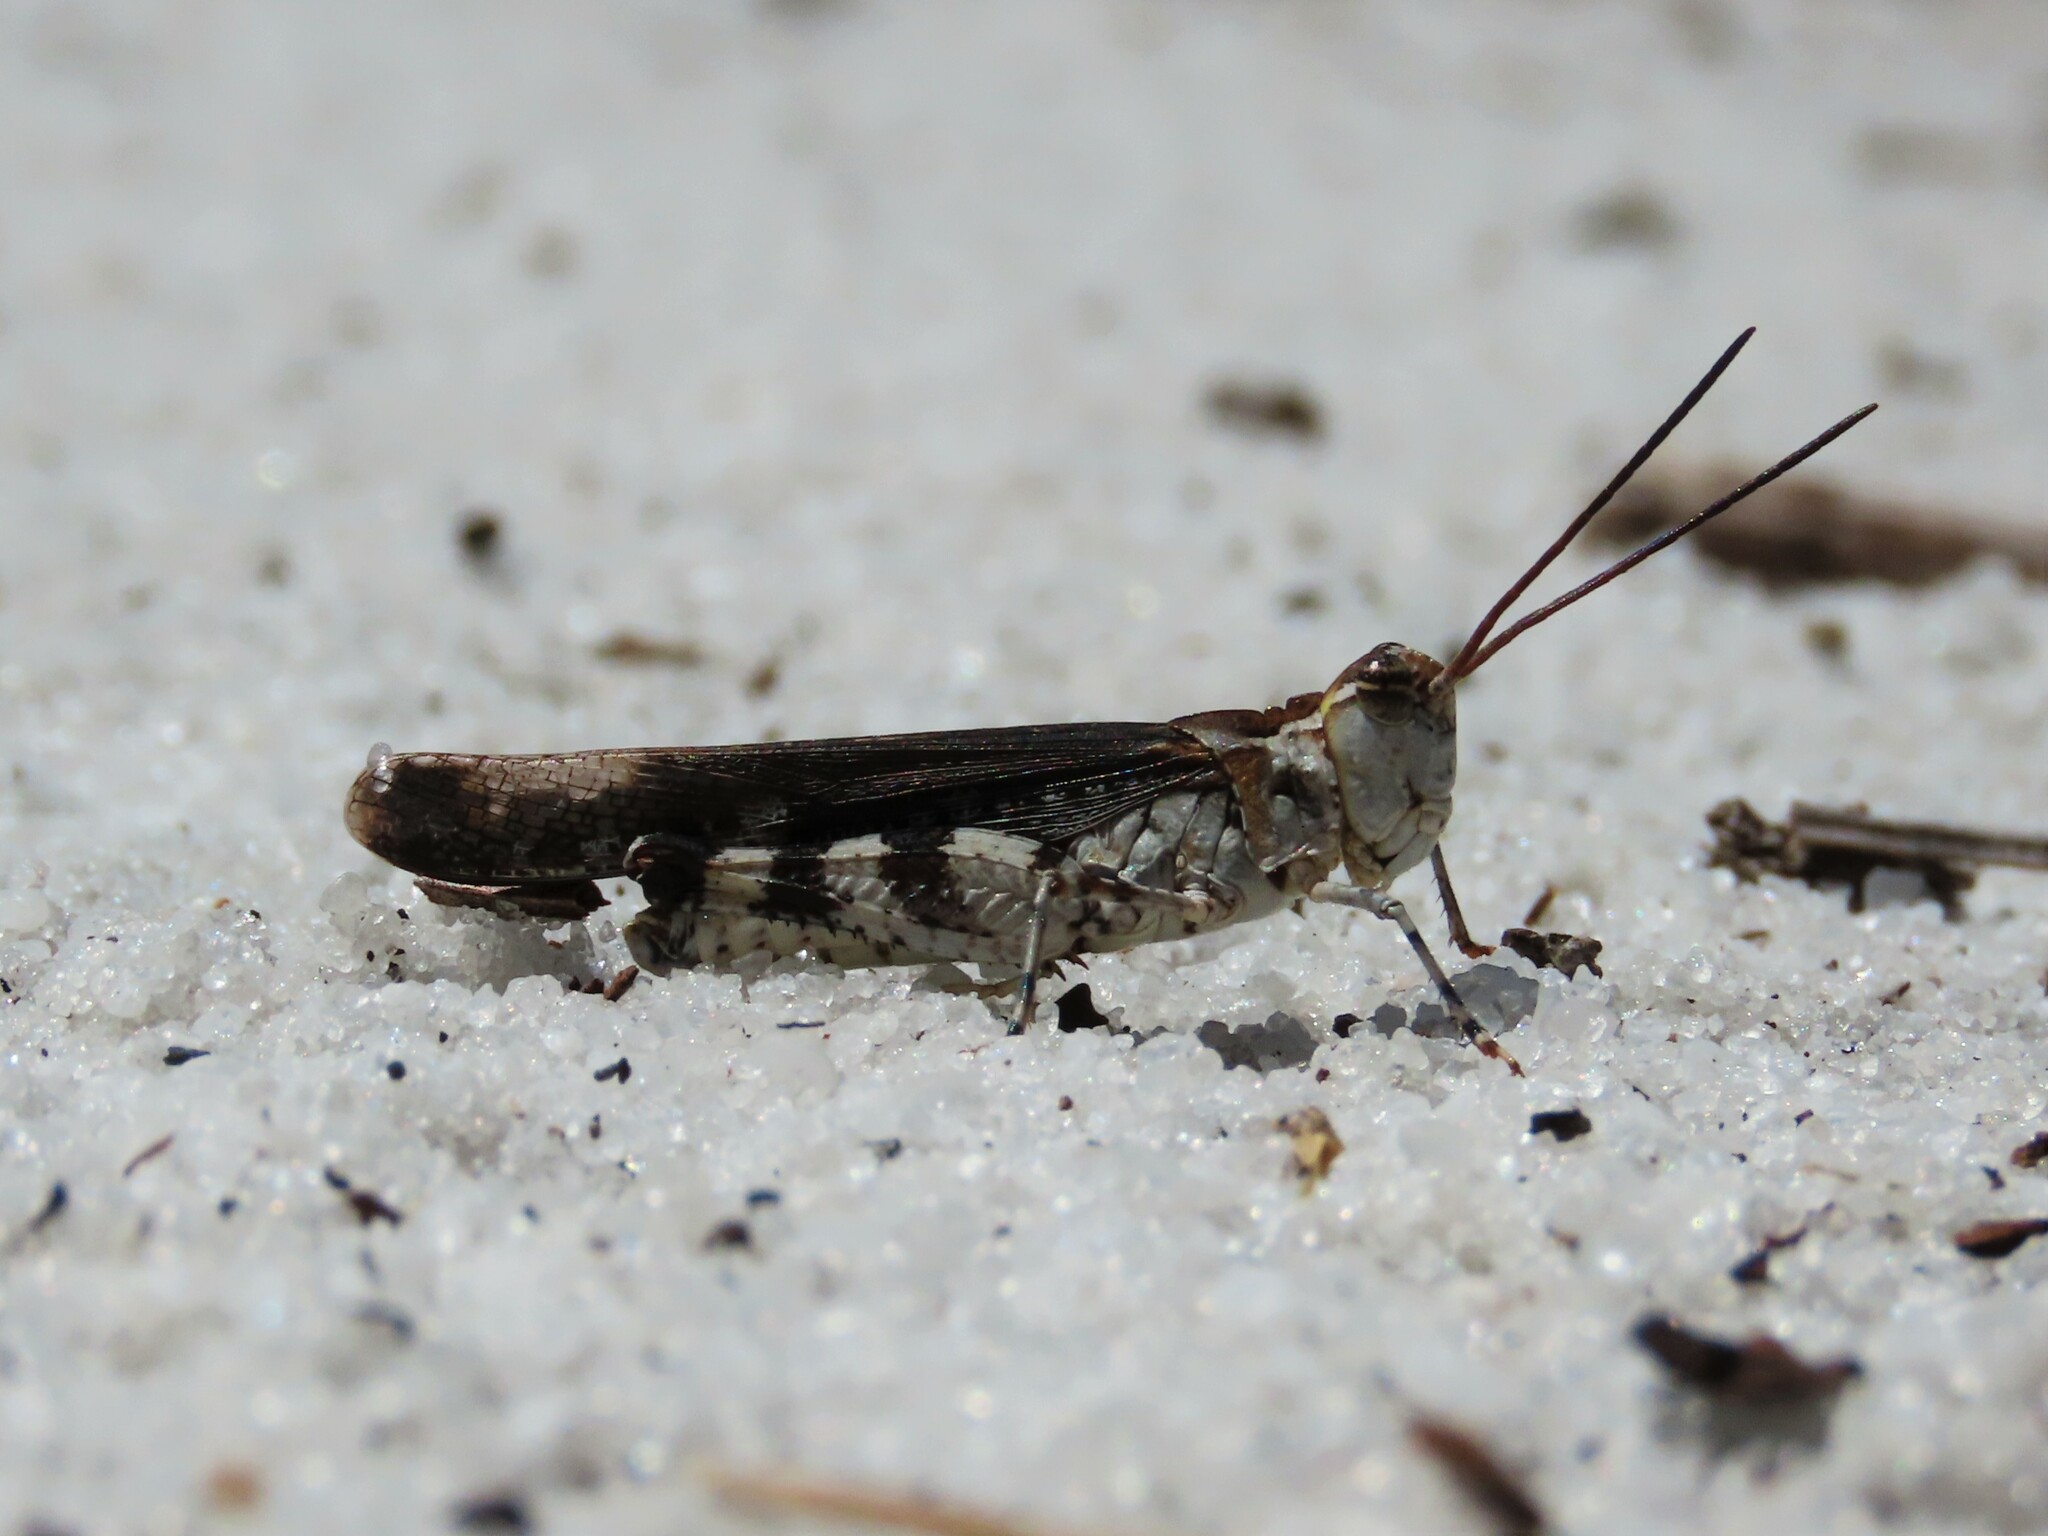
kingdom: Animalia
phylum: Arthropoda
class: Insecta
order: Orthoptera
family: Acrididae
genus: Psinidia
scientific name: Psinidia fenestralis
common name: Long-horned locust
